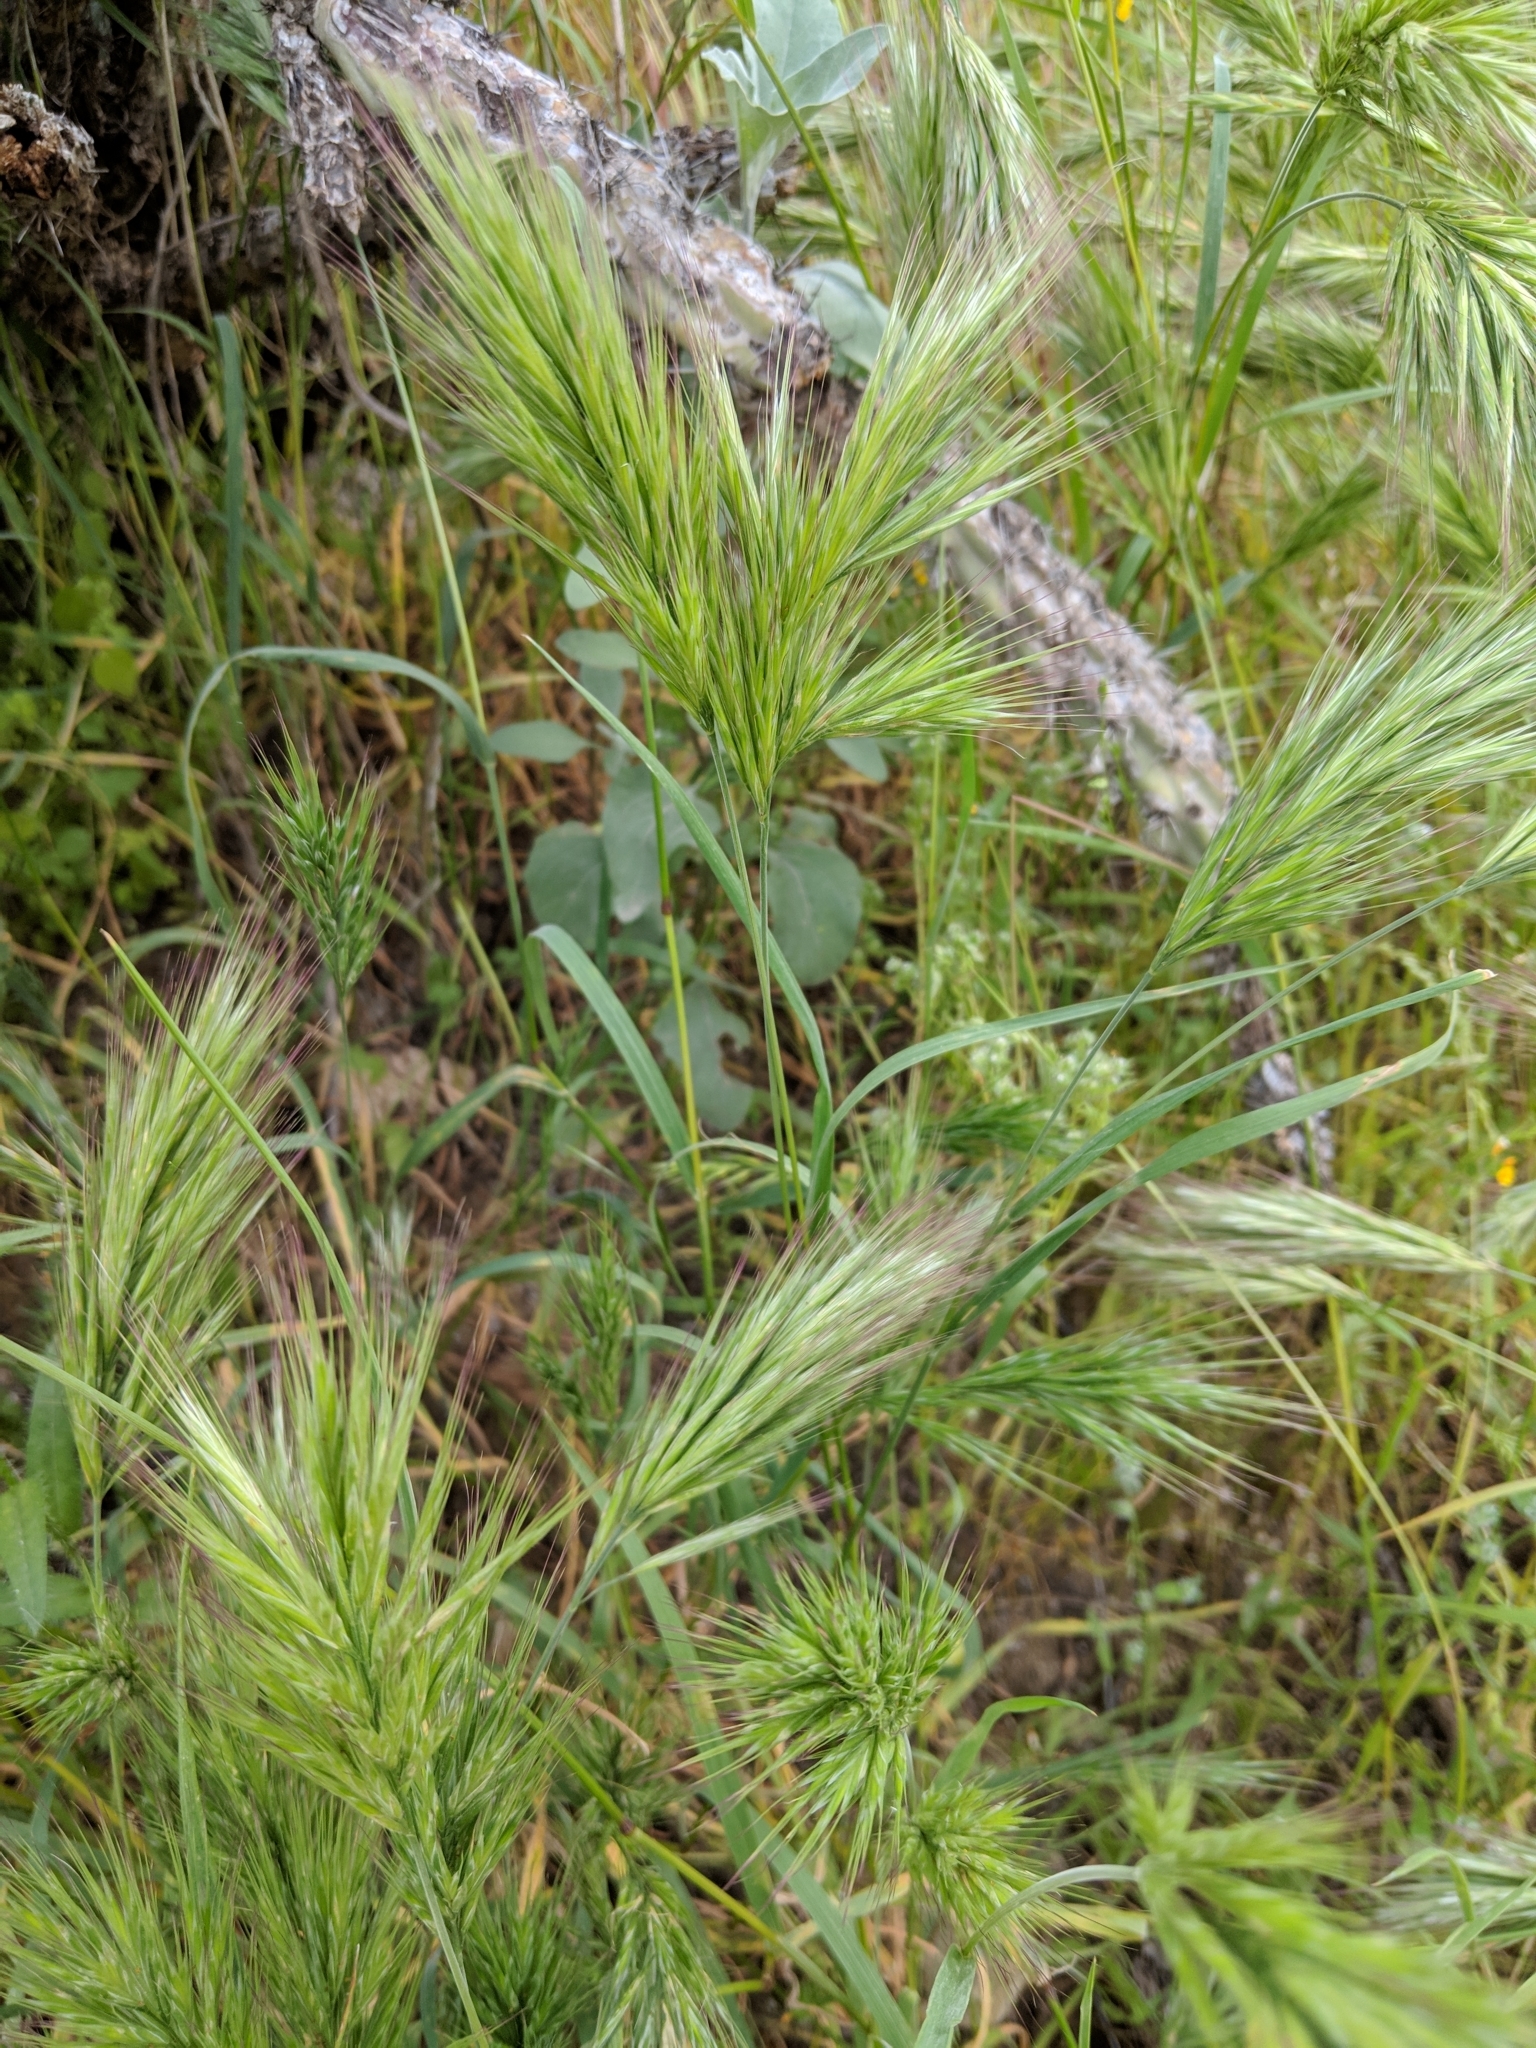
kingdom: Plantae
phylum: Tracheophyta
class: Liliopsida
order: Poales
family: Poaceae
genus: Bromus
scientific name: Bromus rubens
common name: Red brome
